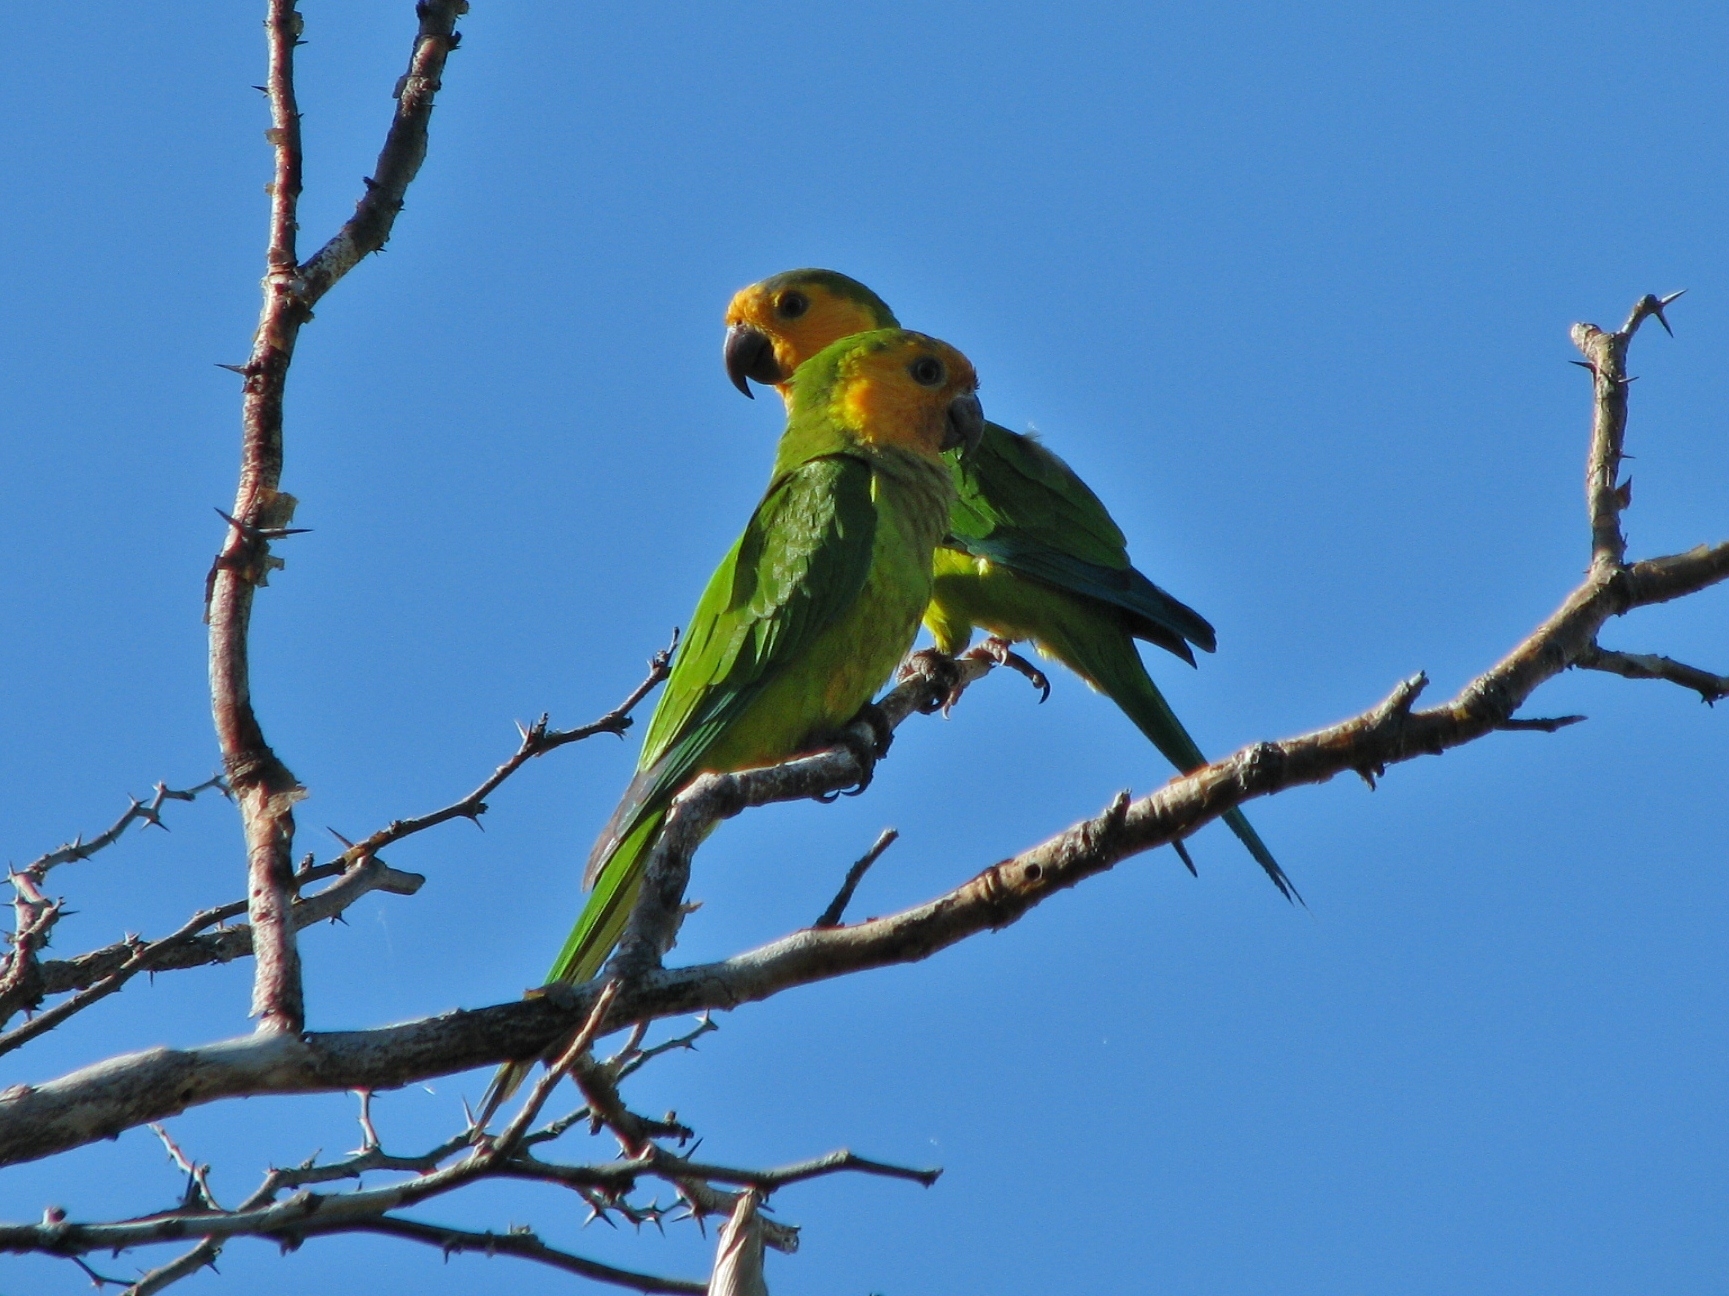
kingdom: Animalia
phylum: Chordata
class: Aves
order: Psittaciformes
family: Psittacidae
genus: Aratinga
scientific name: Aratinga pertinax
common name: Brown-throated parakeet
